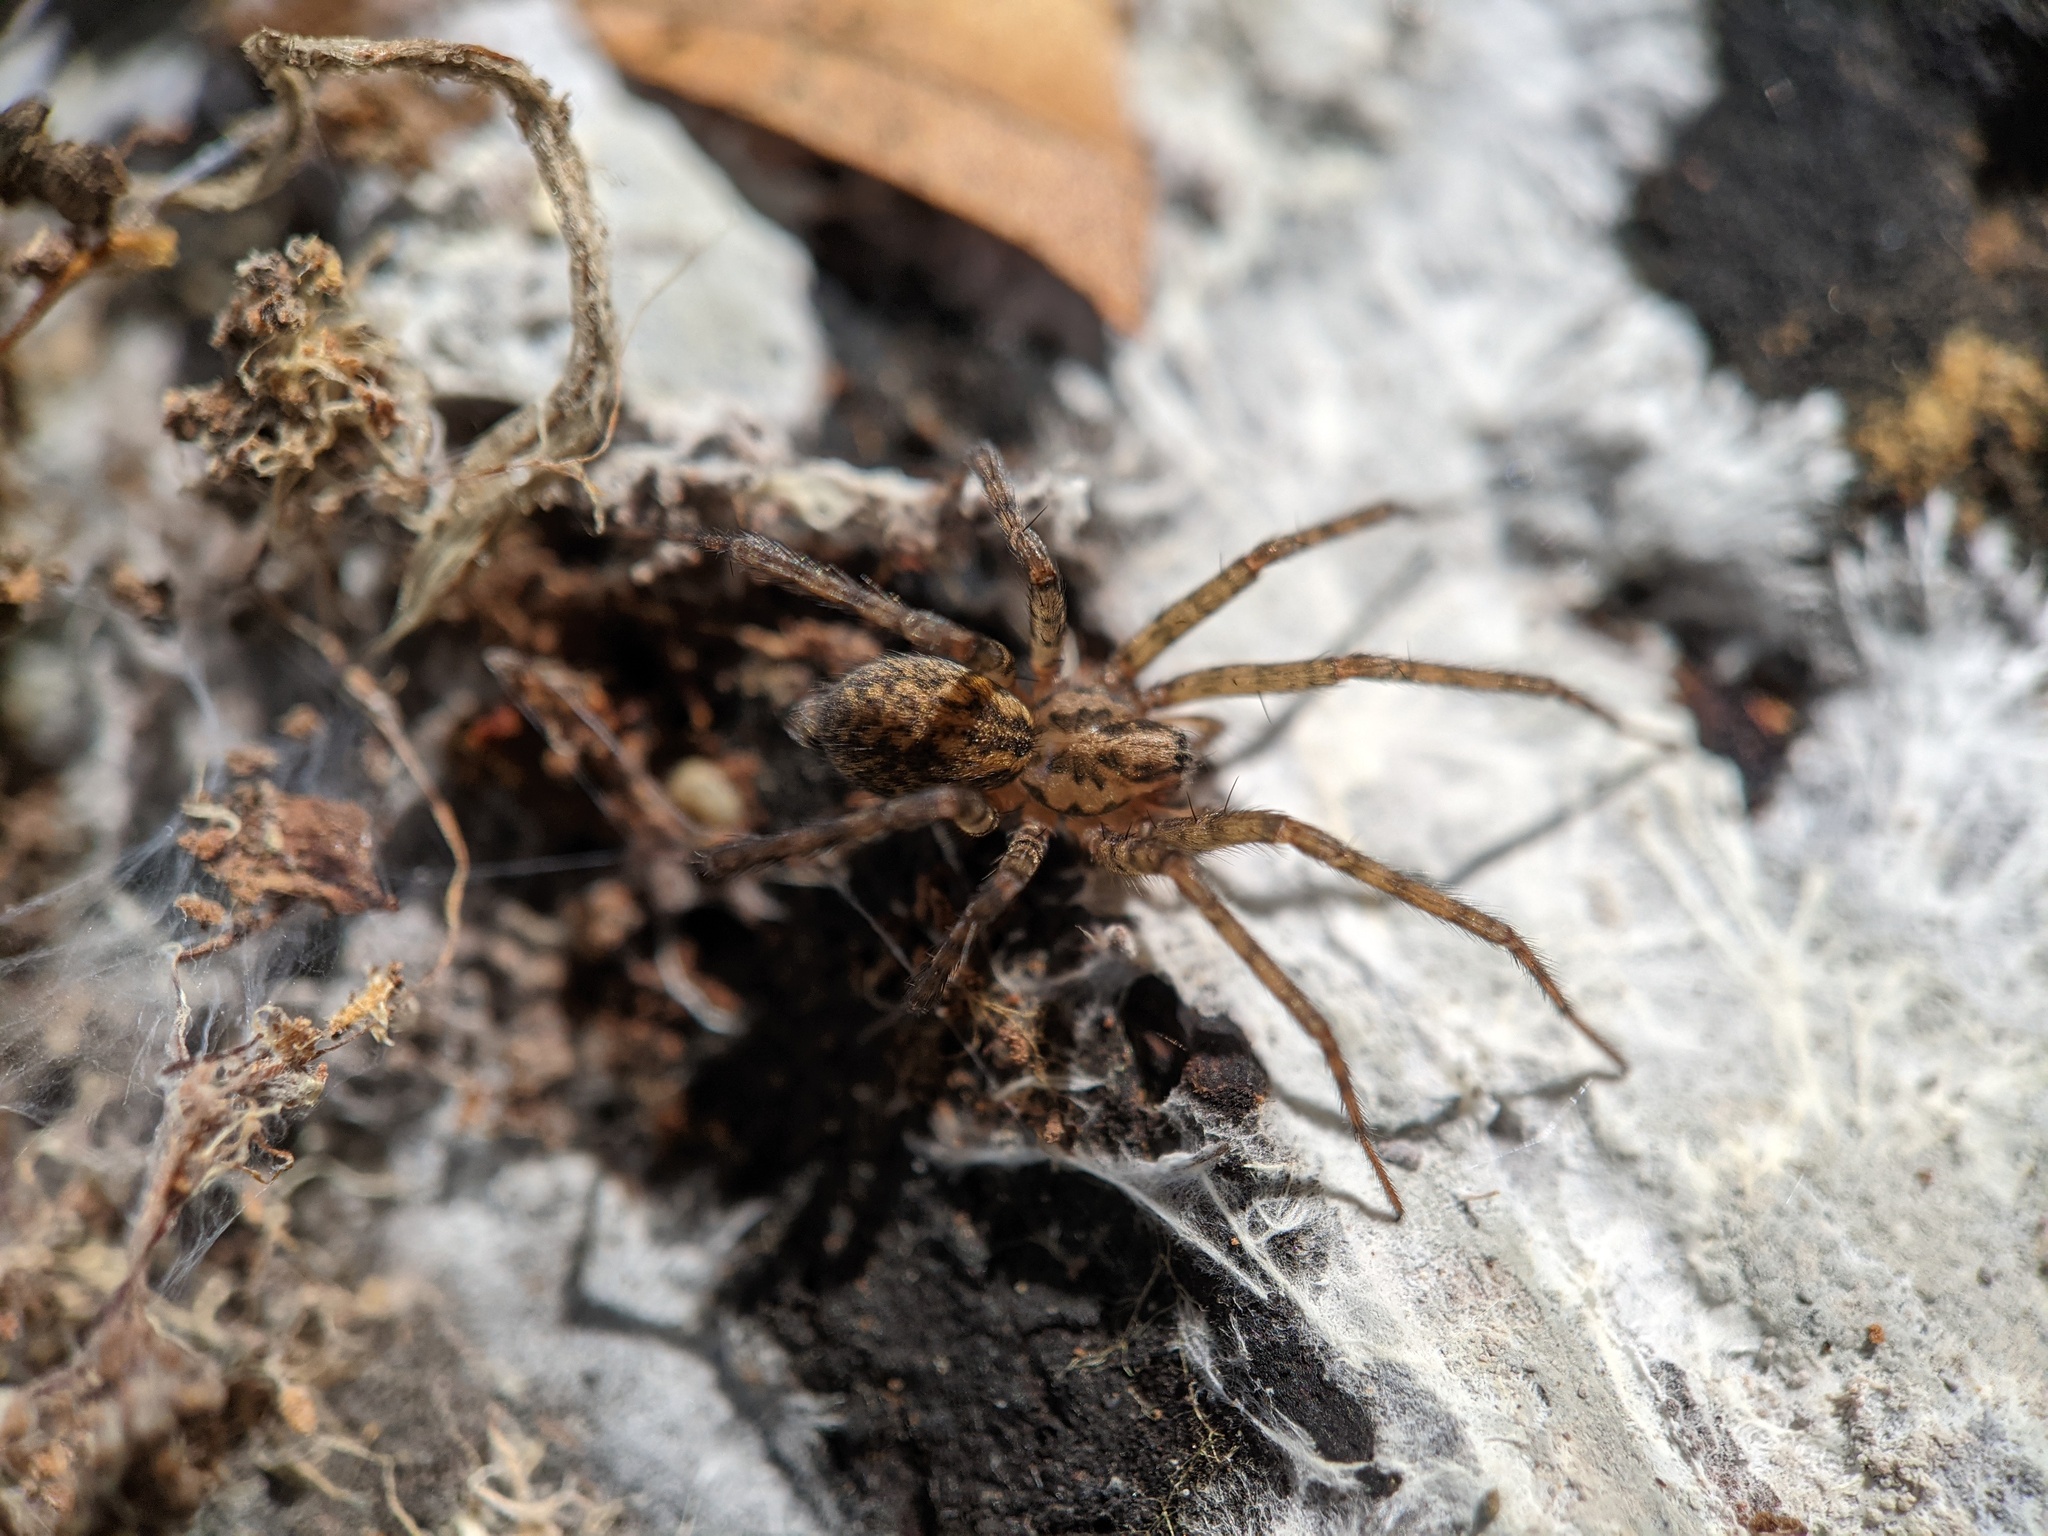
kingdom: Animalia
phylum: Arthropoda
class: Arachnida
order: Araneae
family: Agelenidae
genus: Tegenaria
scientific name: Tegenaria silvestris
